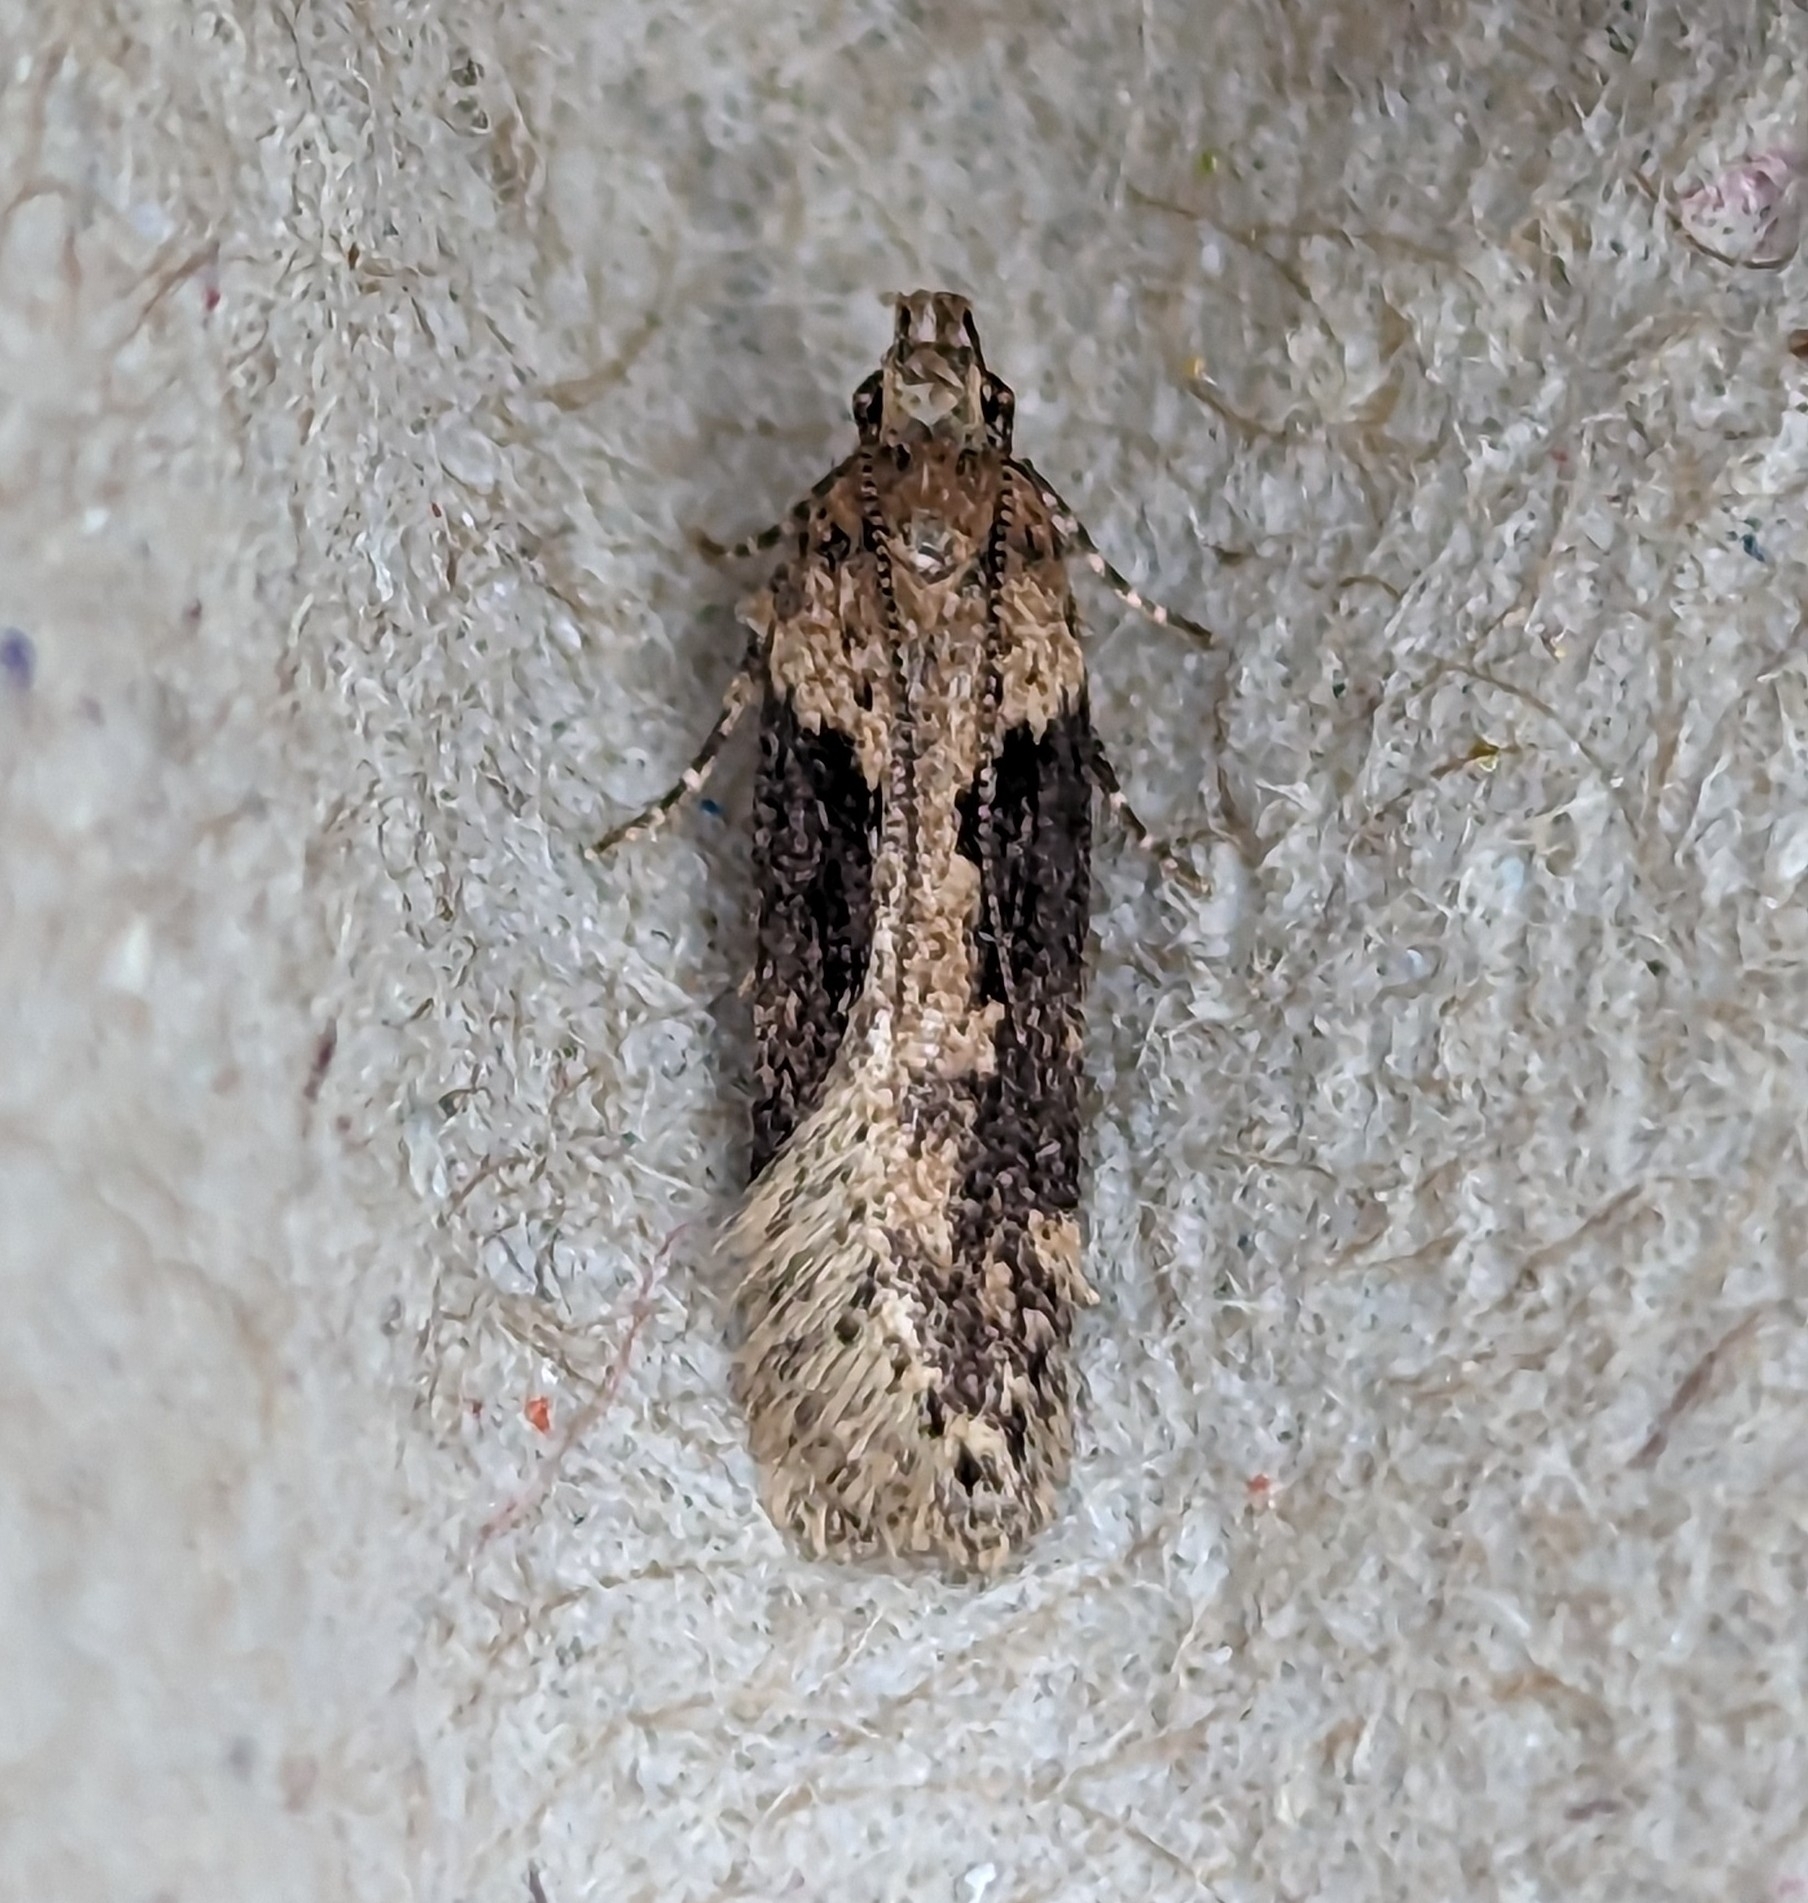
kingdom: Animalia
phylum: Arthropoda
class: Insecta
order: Lepidoptera
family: Gelechiidae
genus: Chionodes
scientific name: Chionodes mediofuscella
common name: Black-smudged chionodes moth
